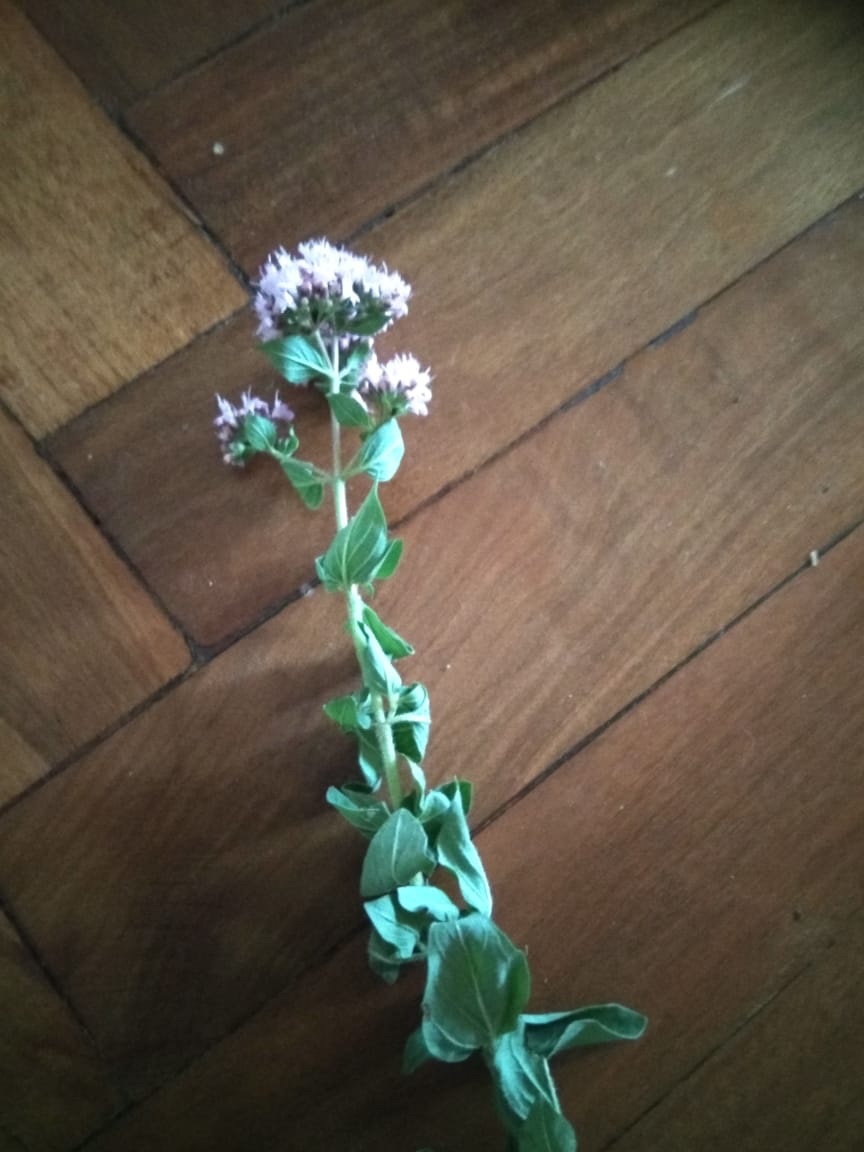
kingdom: Plantae
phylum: Tracheophyta
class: Magnoliopsida
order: Lamiales
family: Lamiaceae
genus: Origanum
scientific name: Origanum vulgare
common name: Wild marjoram
